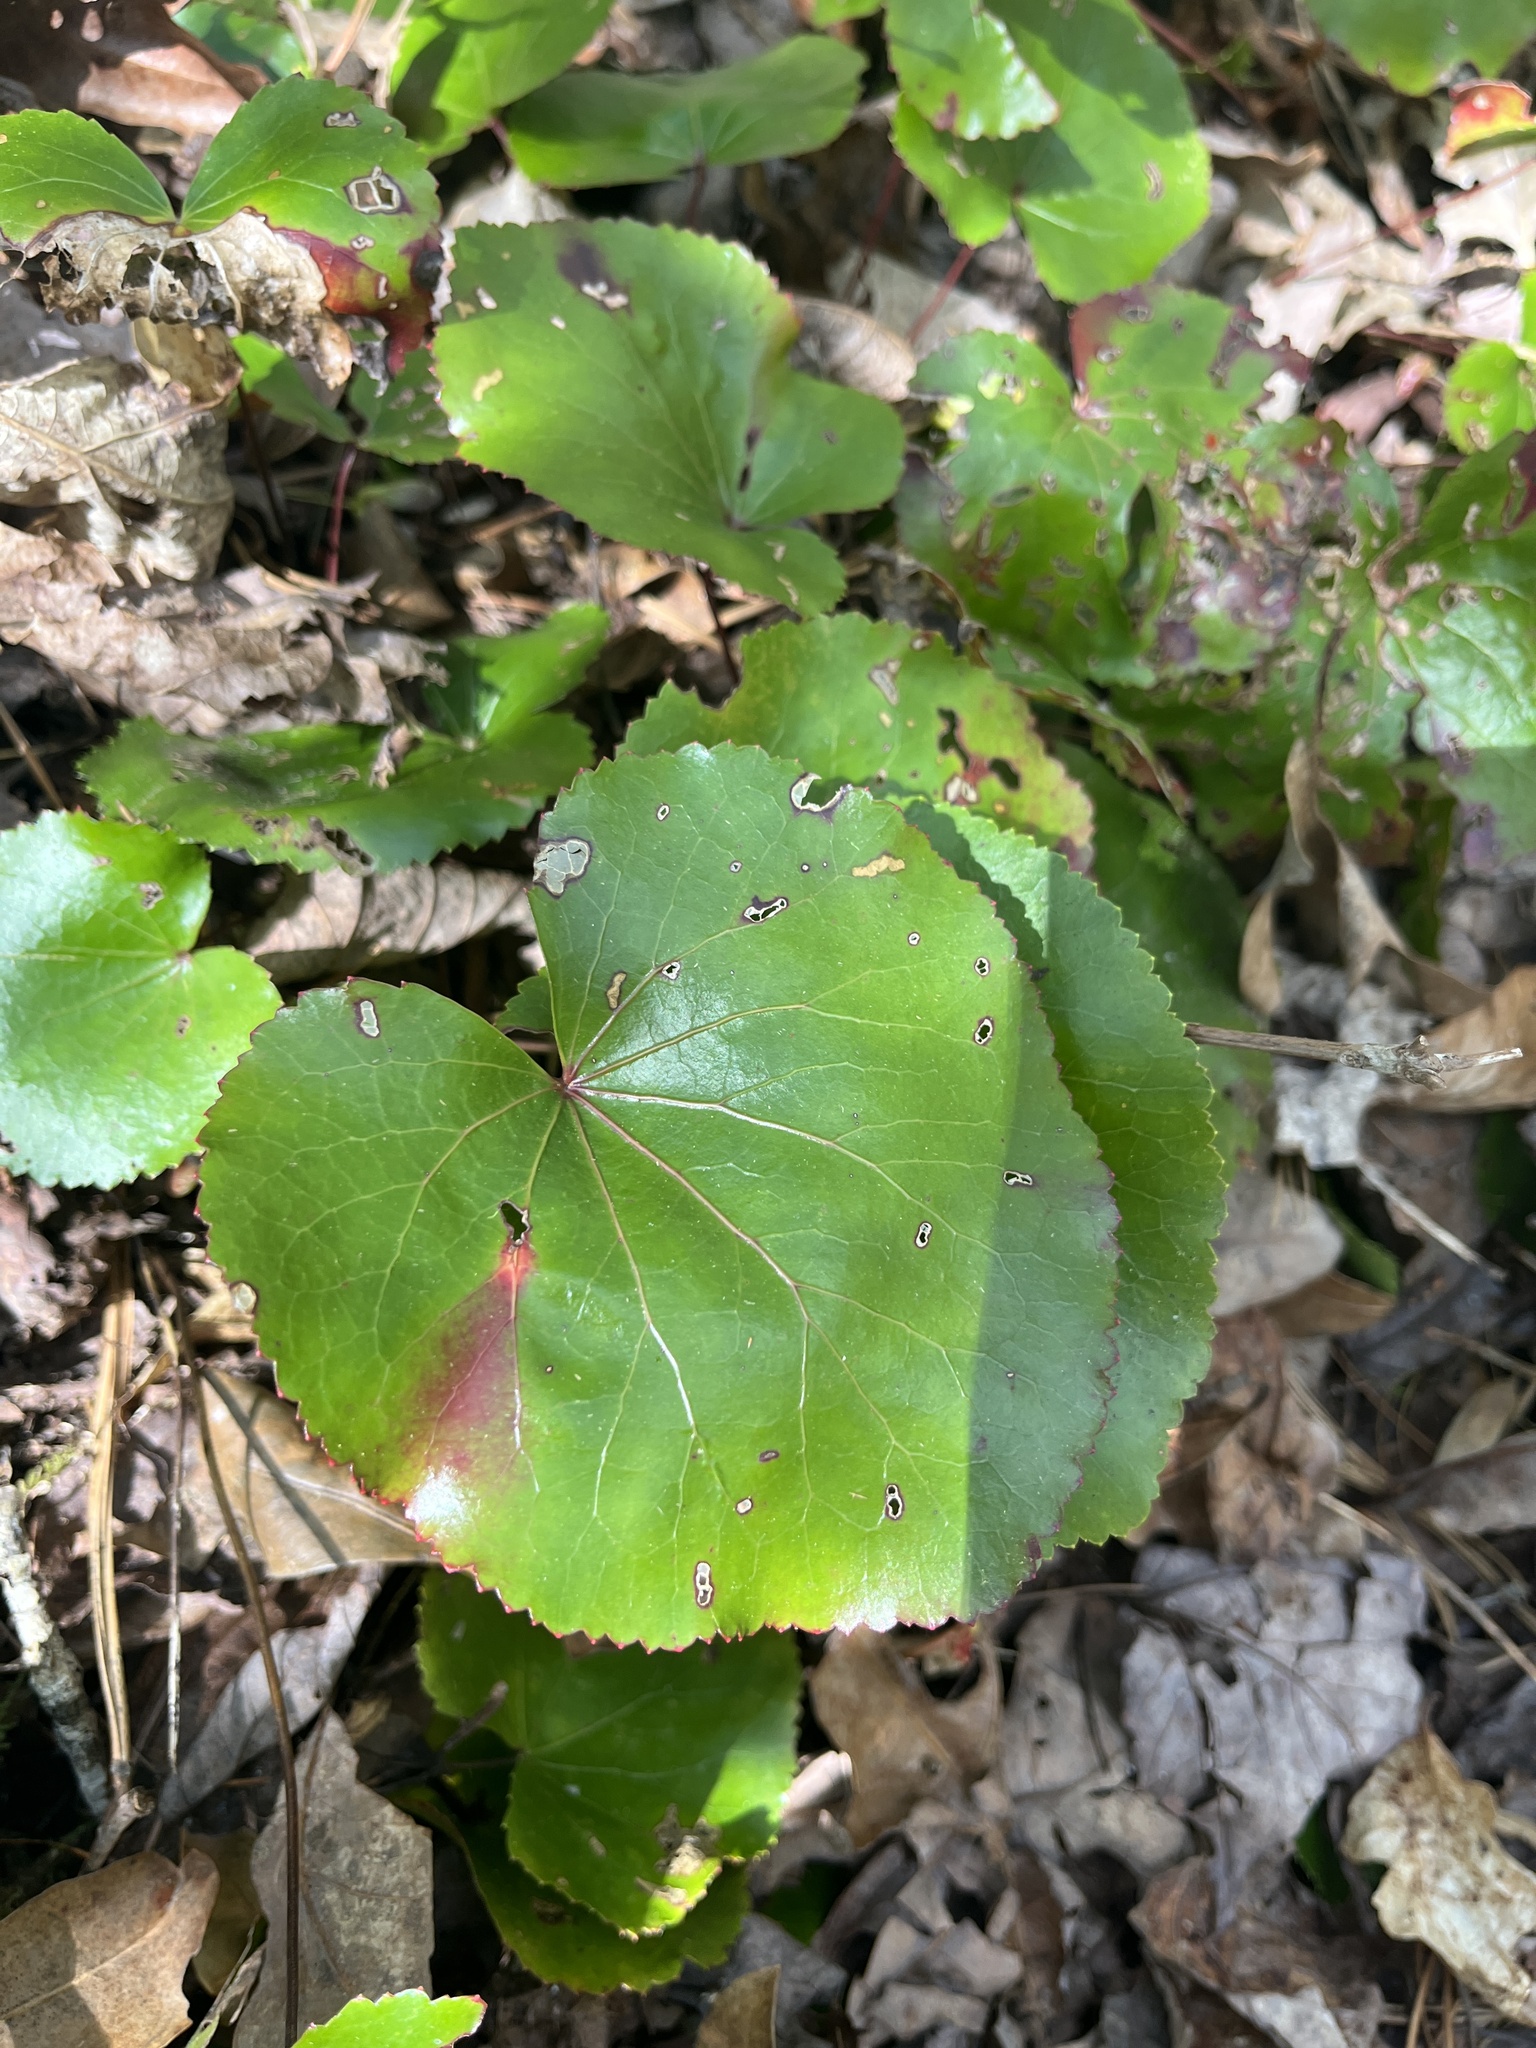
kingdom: Plantae
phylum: Tracheophyta
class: Magnoliopsida
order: Ericales
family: Diapensiaceae
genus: Galax
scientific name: Galax urceolata
